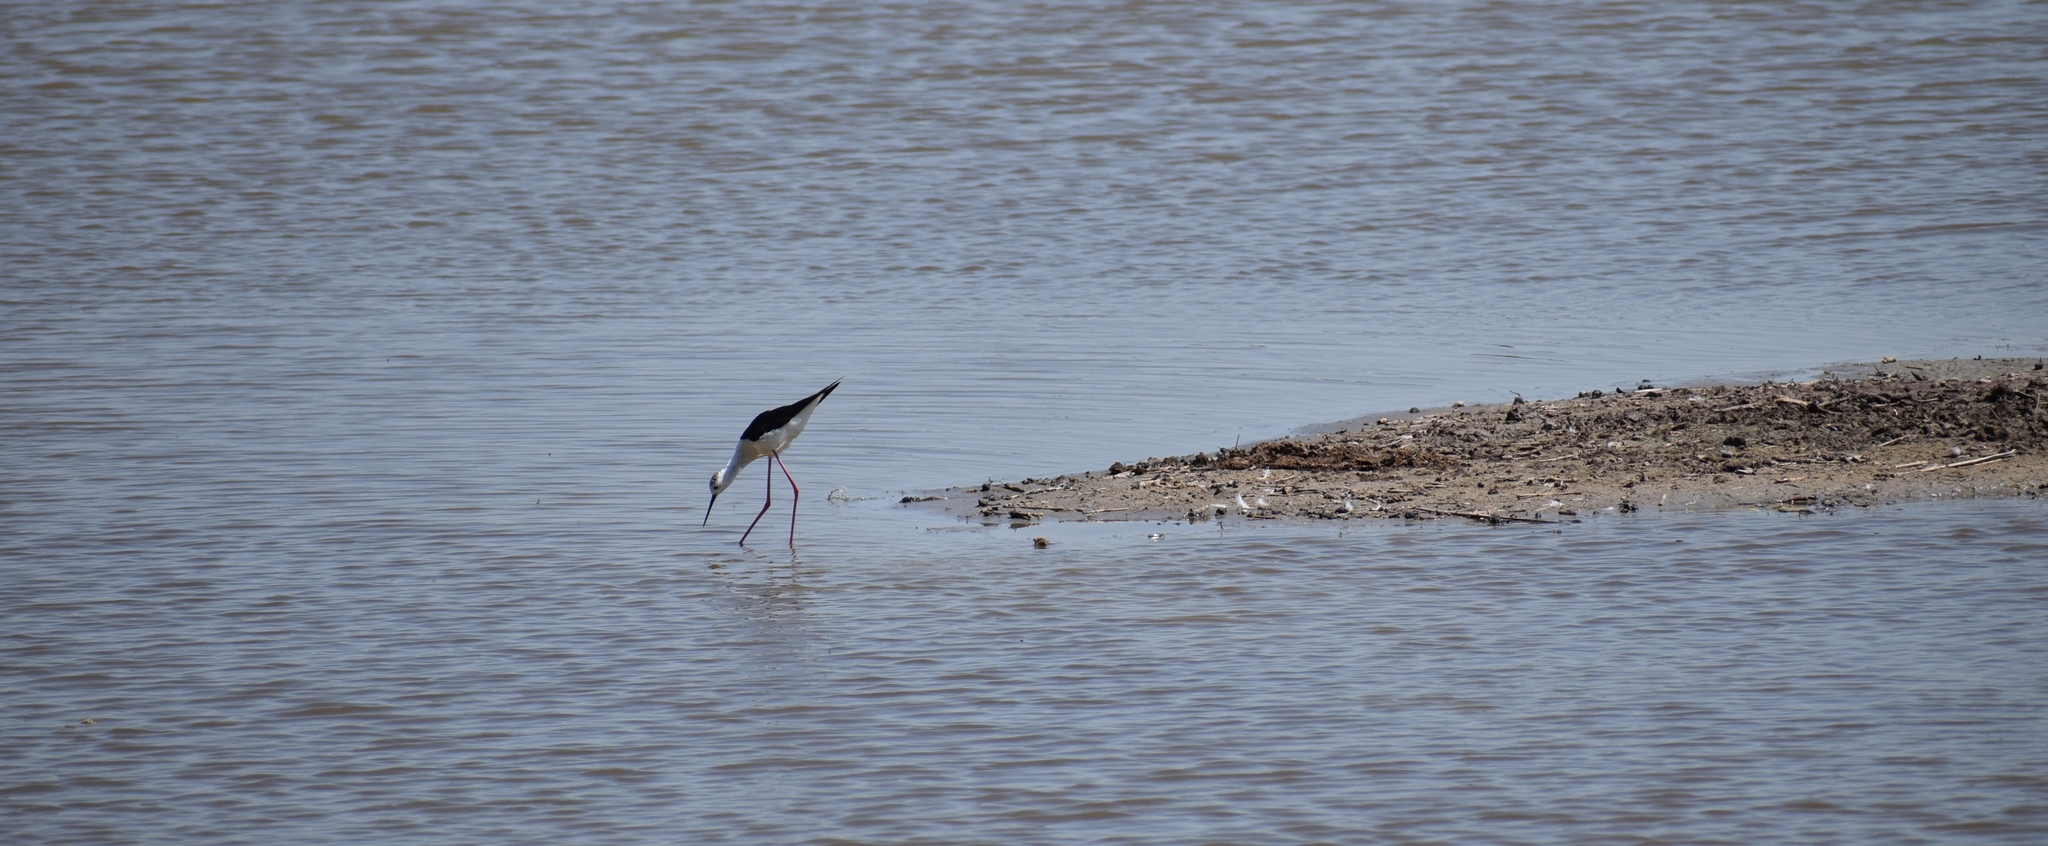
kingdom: Animalia
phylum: Chordata
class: Aves
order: Charadriiformes
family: Recurvirostridae
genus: Himantopus
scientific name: Himantopus himantopus
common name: Black-winged stilt
